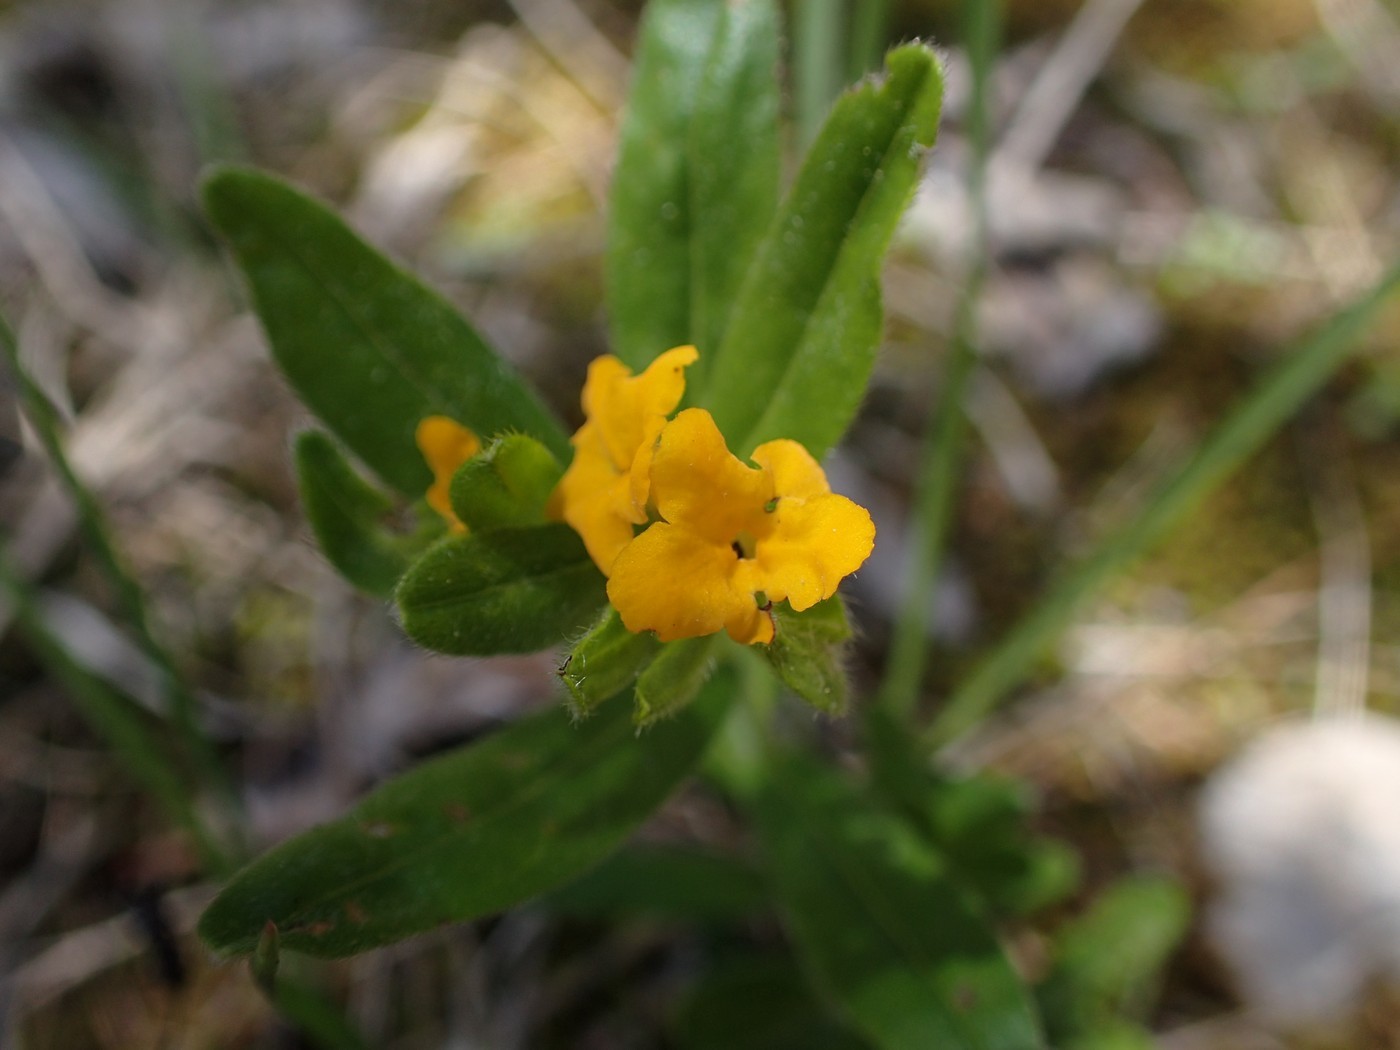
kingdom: Plantae
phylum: Tracheophyta
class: Magnoliopsida
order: Boraginales
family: Boraginaceae
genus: Lithospermum
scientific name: Lithospermum canescens
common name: Hoary puccoon
